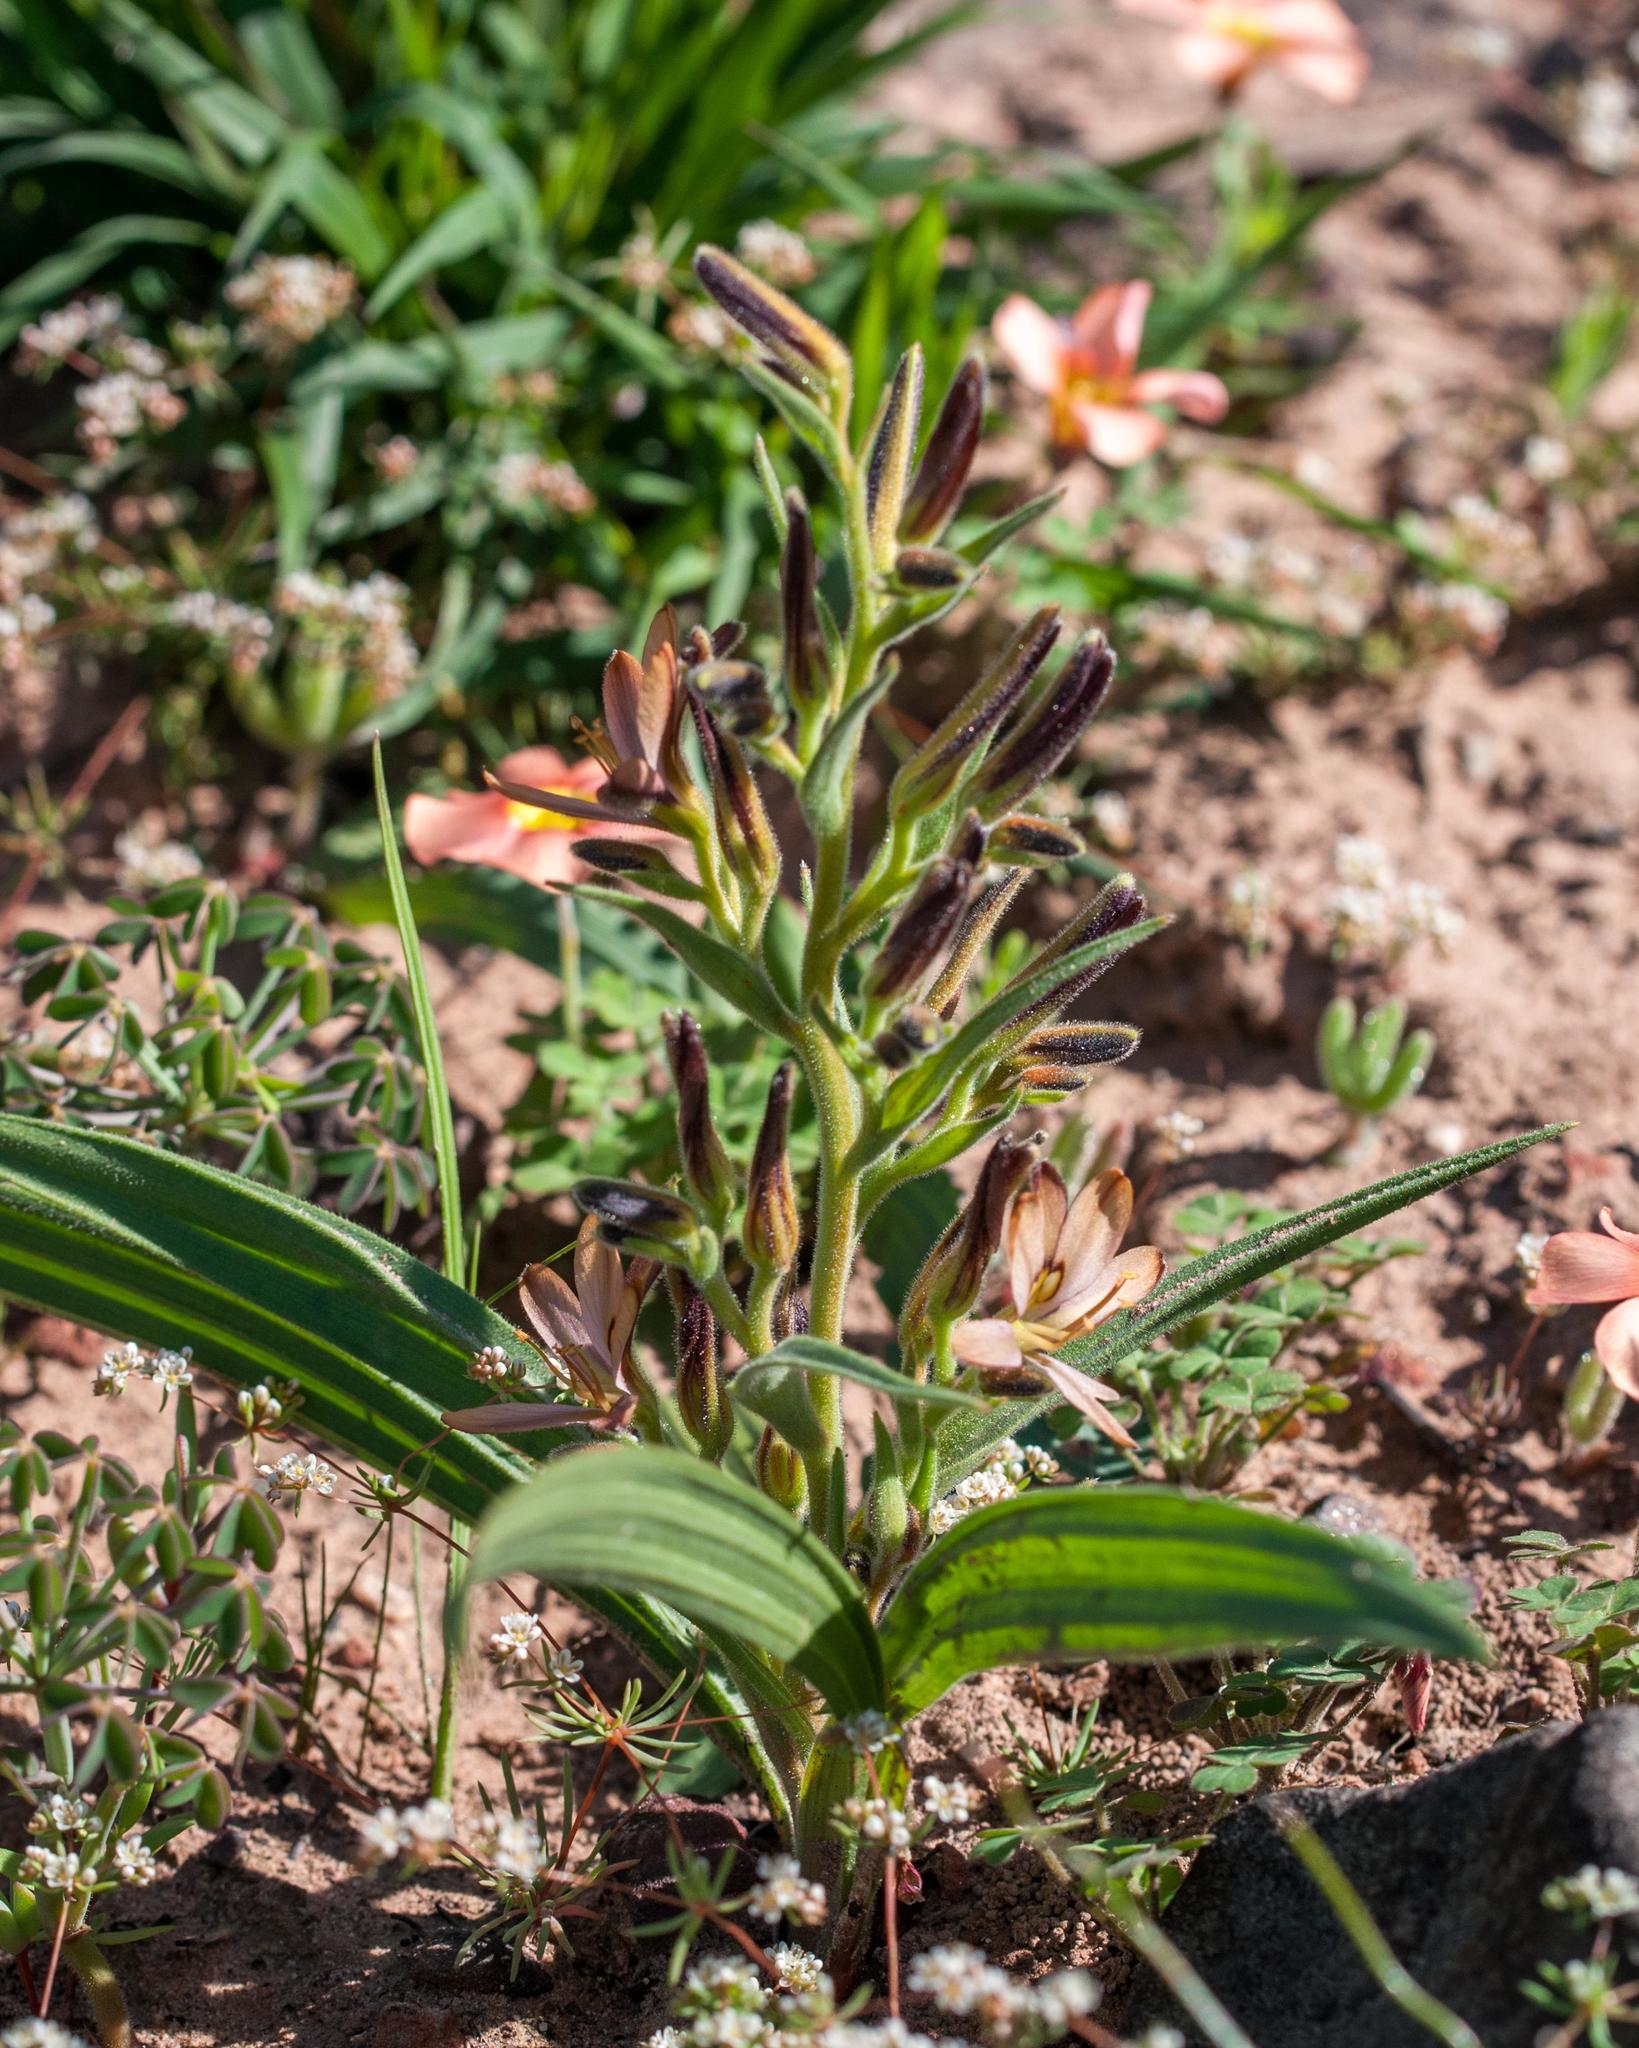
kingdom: Plantae
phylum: Tracheophyta
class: Liliopsida
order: Commelinales
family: Haemodoraceae
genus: Wachendorfia
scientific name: Wachendorfia multiflora
